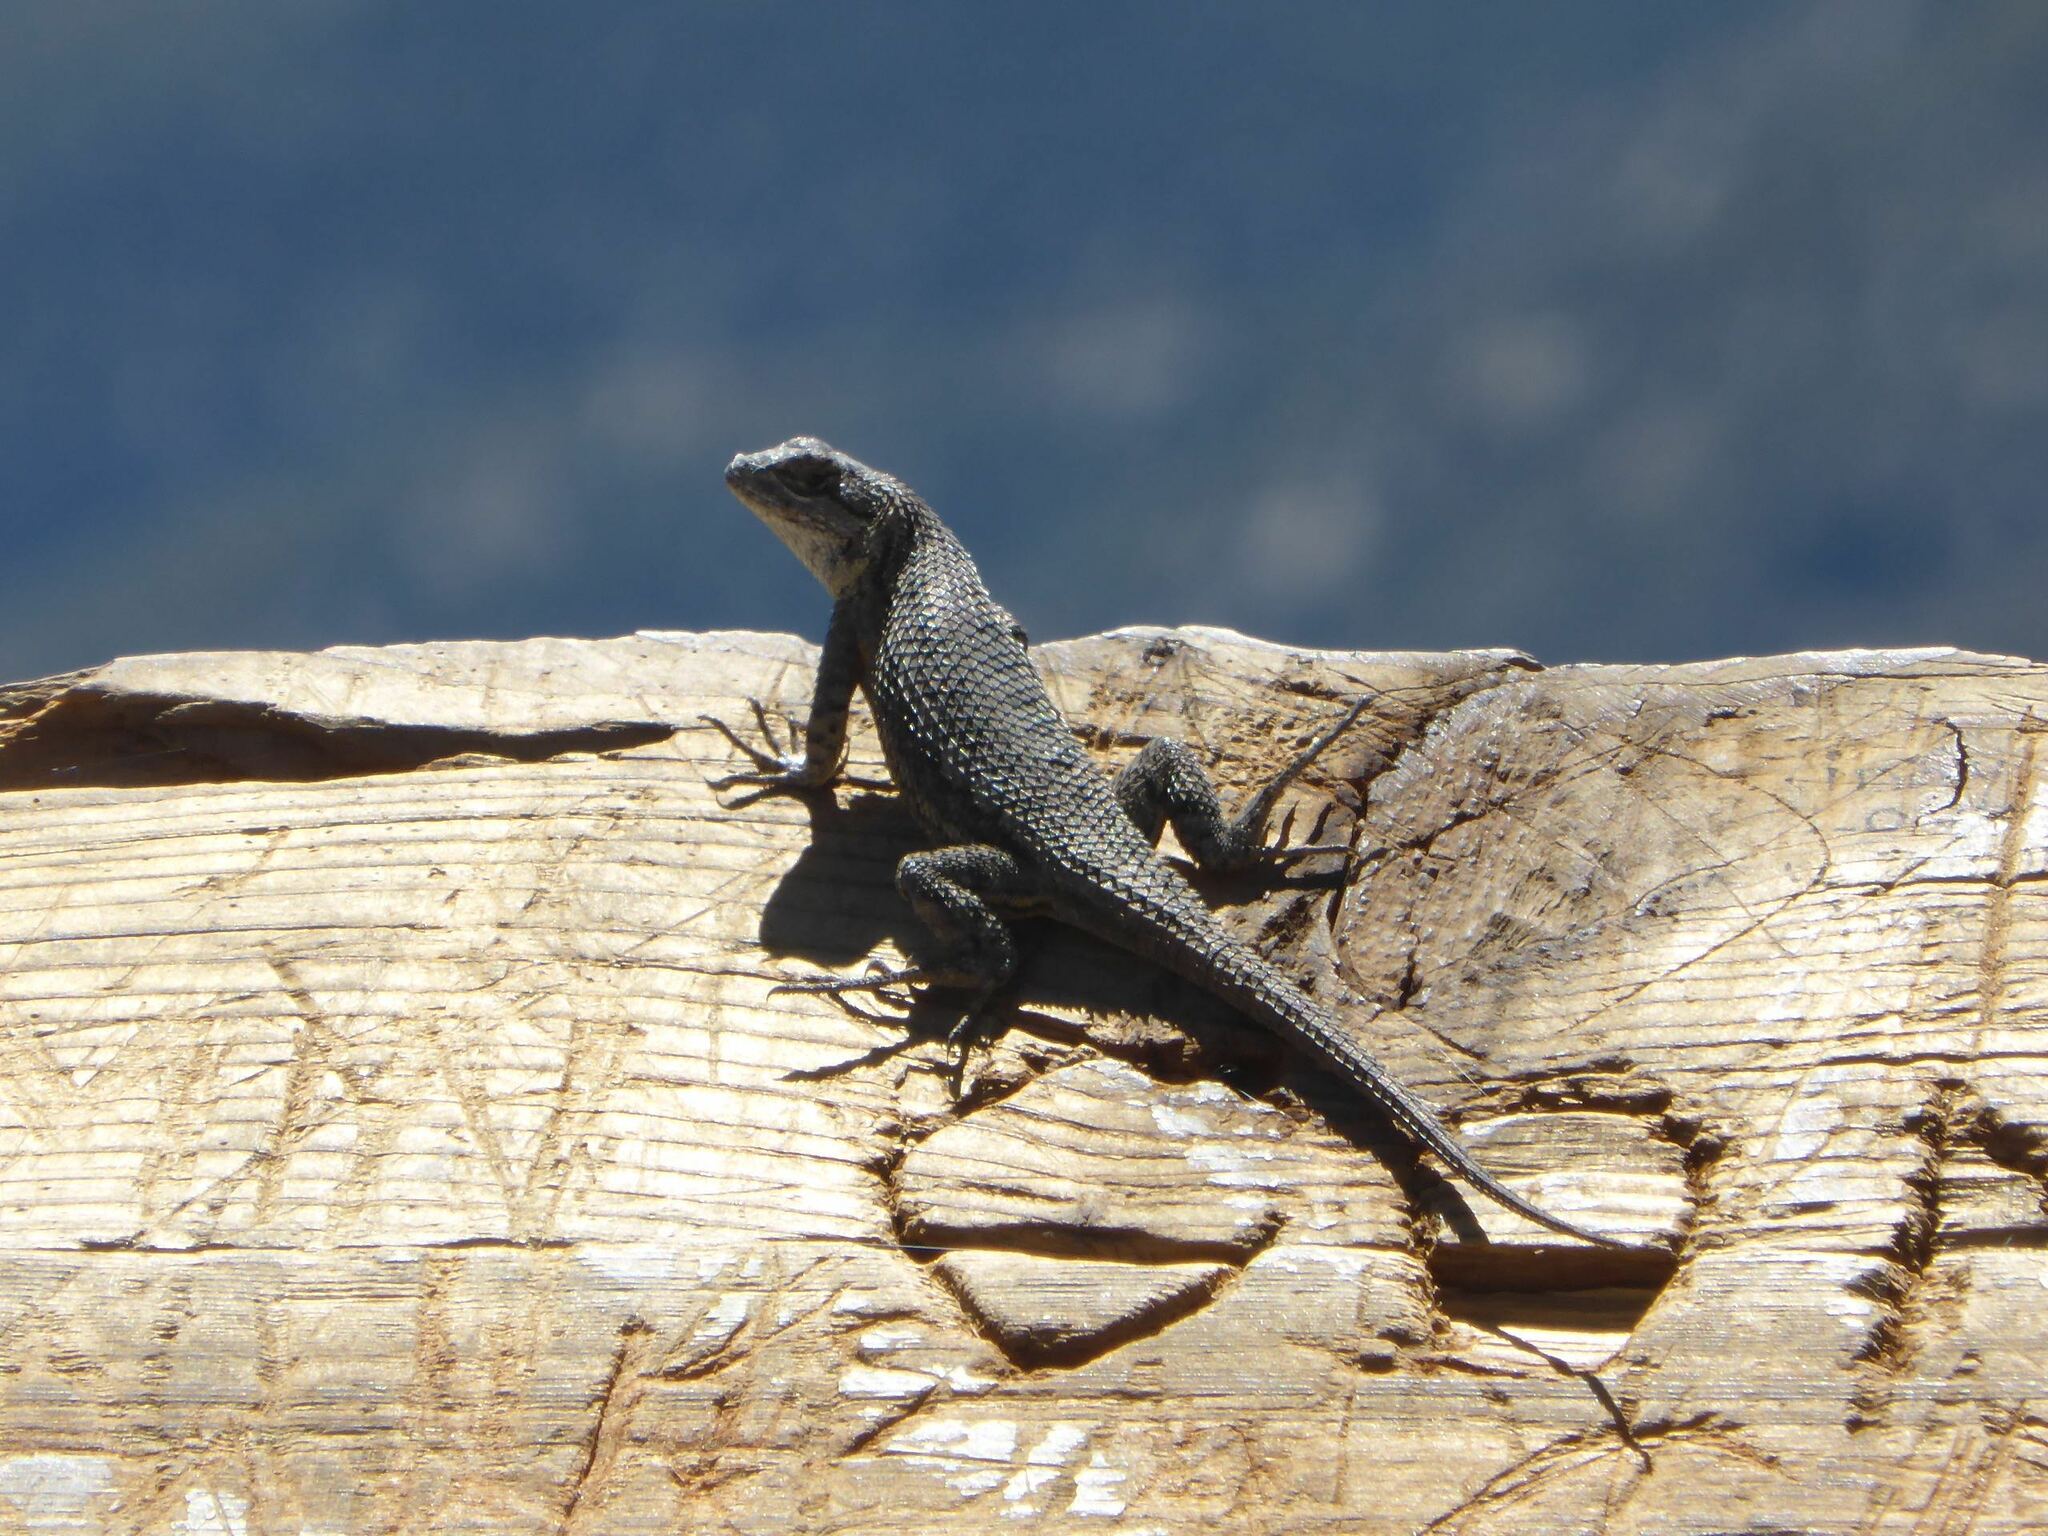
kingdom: Animalia
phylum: Chordata
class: Squamata
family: Phrynosomatidae
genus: Sceloporus
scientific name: Sceloporus occidentalis
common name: Western fence lizard
